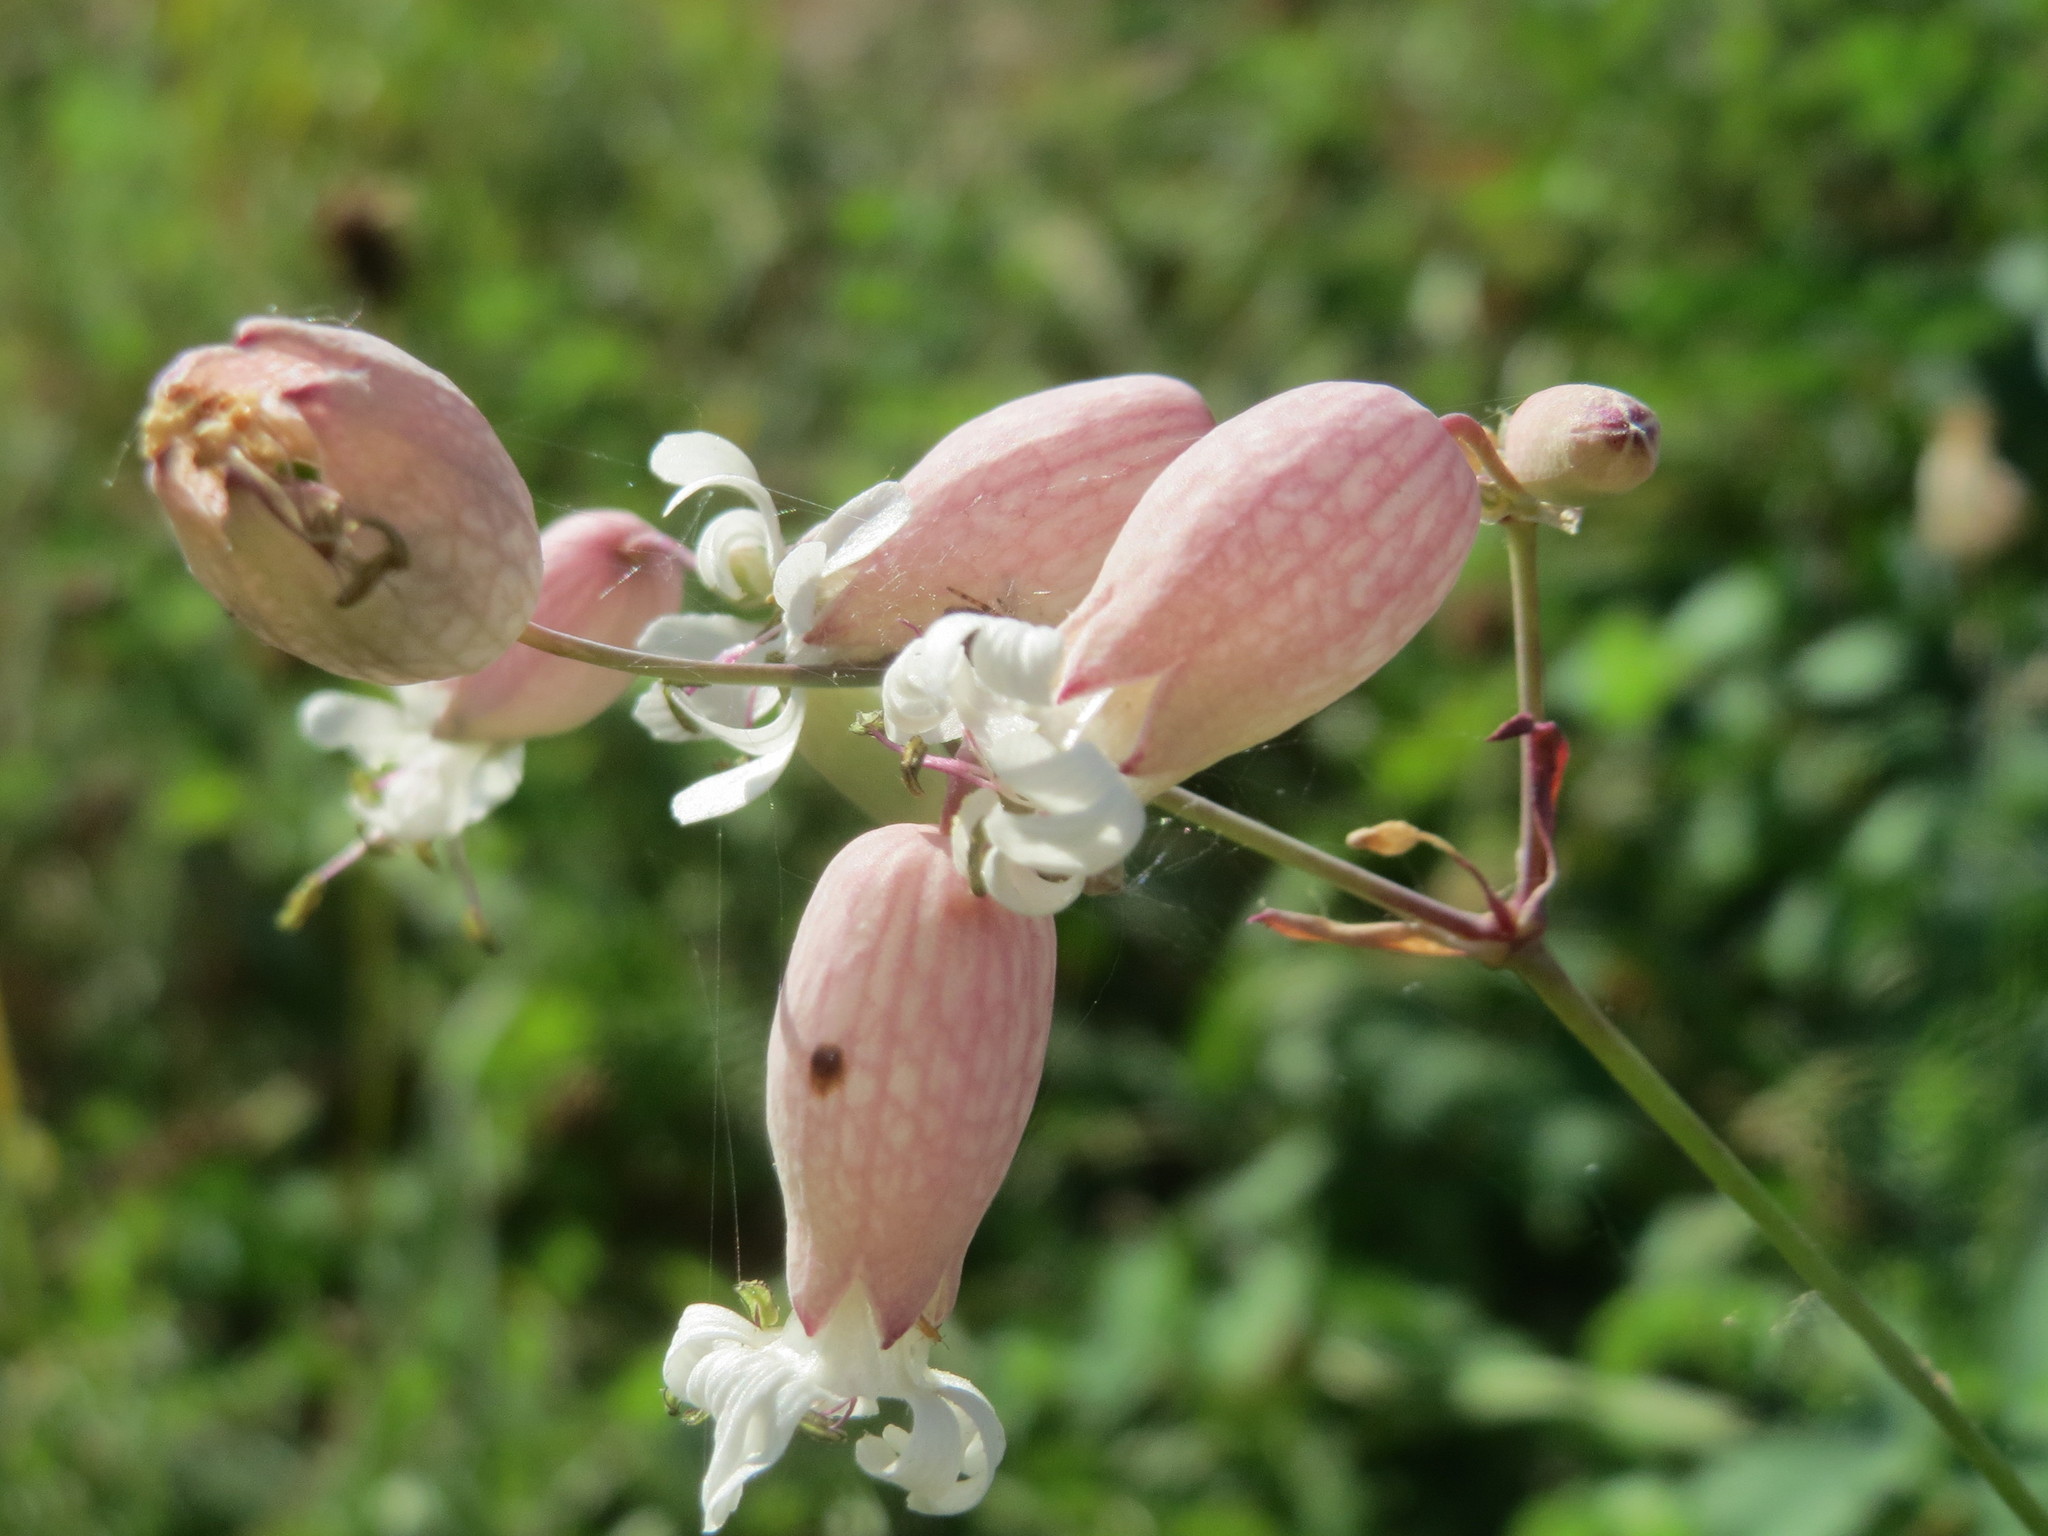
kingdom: Plantae
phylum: Tracheophyta
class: Magnoliopsida
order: Caryophyllales
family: Caryophyllaceae
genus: Silene
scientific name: Silene vulgaris
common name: Bladder campion
